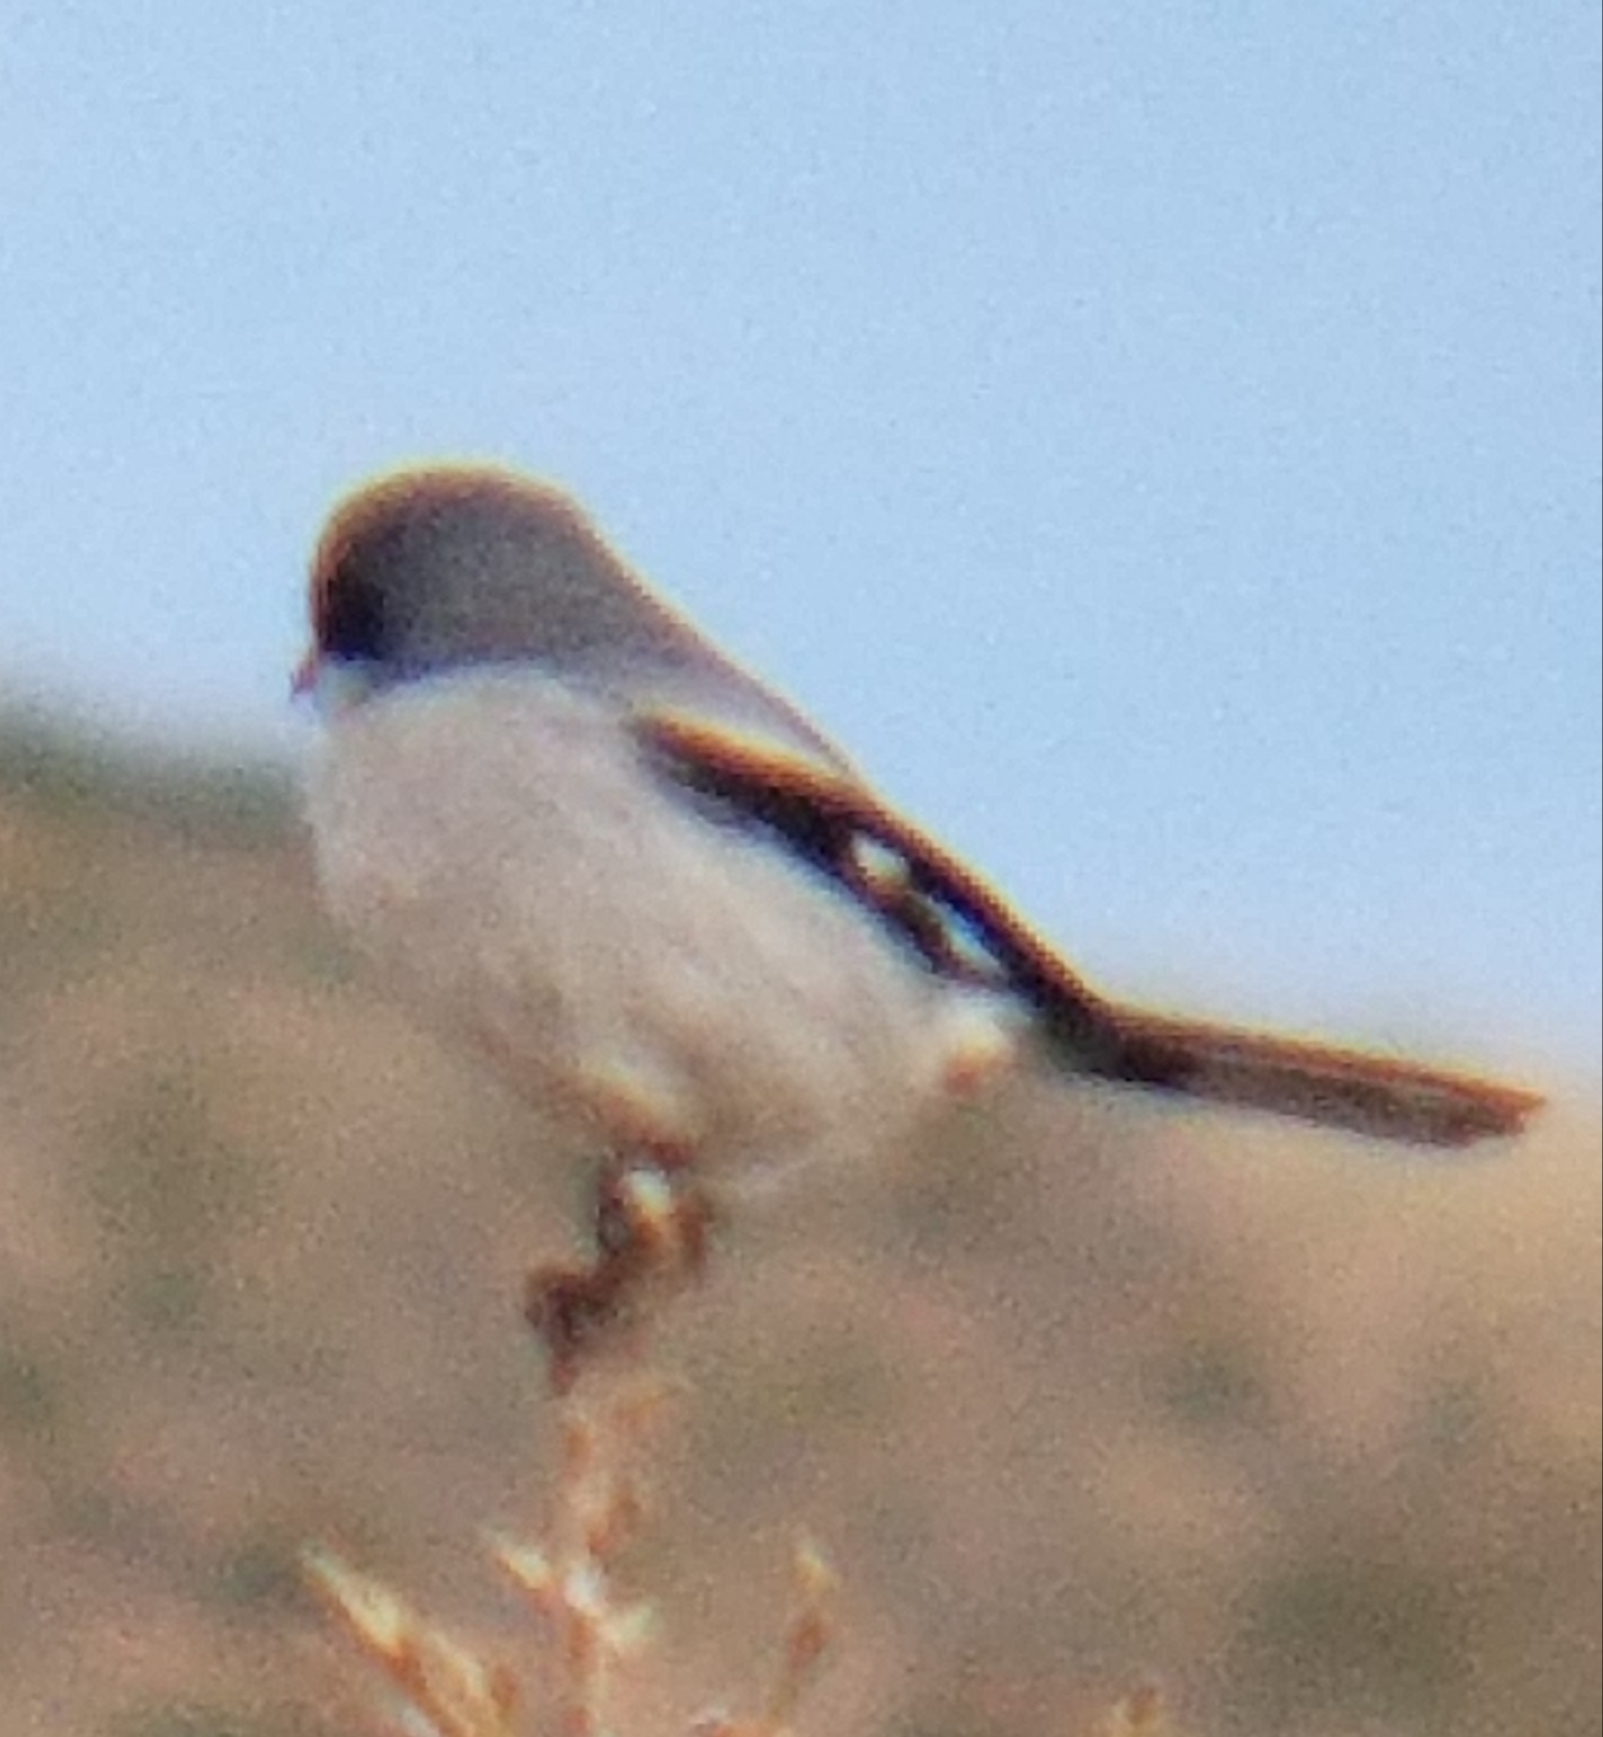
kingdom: Animalia
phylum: Chordata
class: Aves
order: Passeriformes
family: Laniidae
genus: Lanius
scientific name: Lanius ludovicianus
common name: Loggerhead shrike
